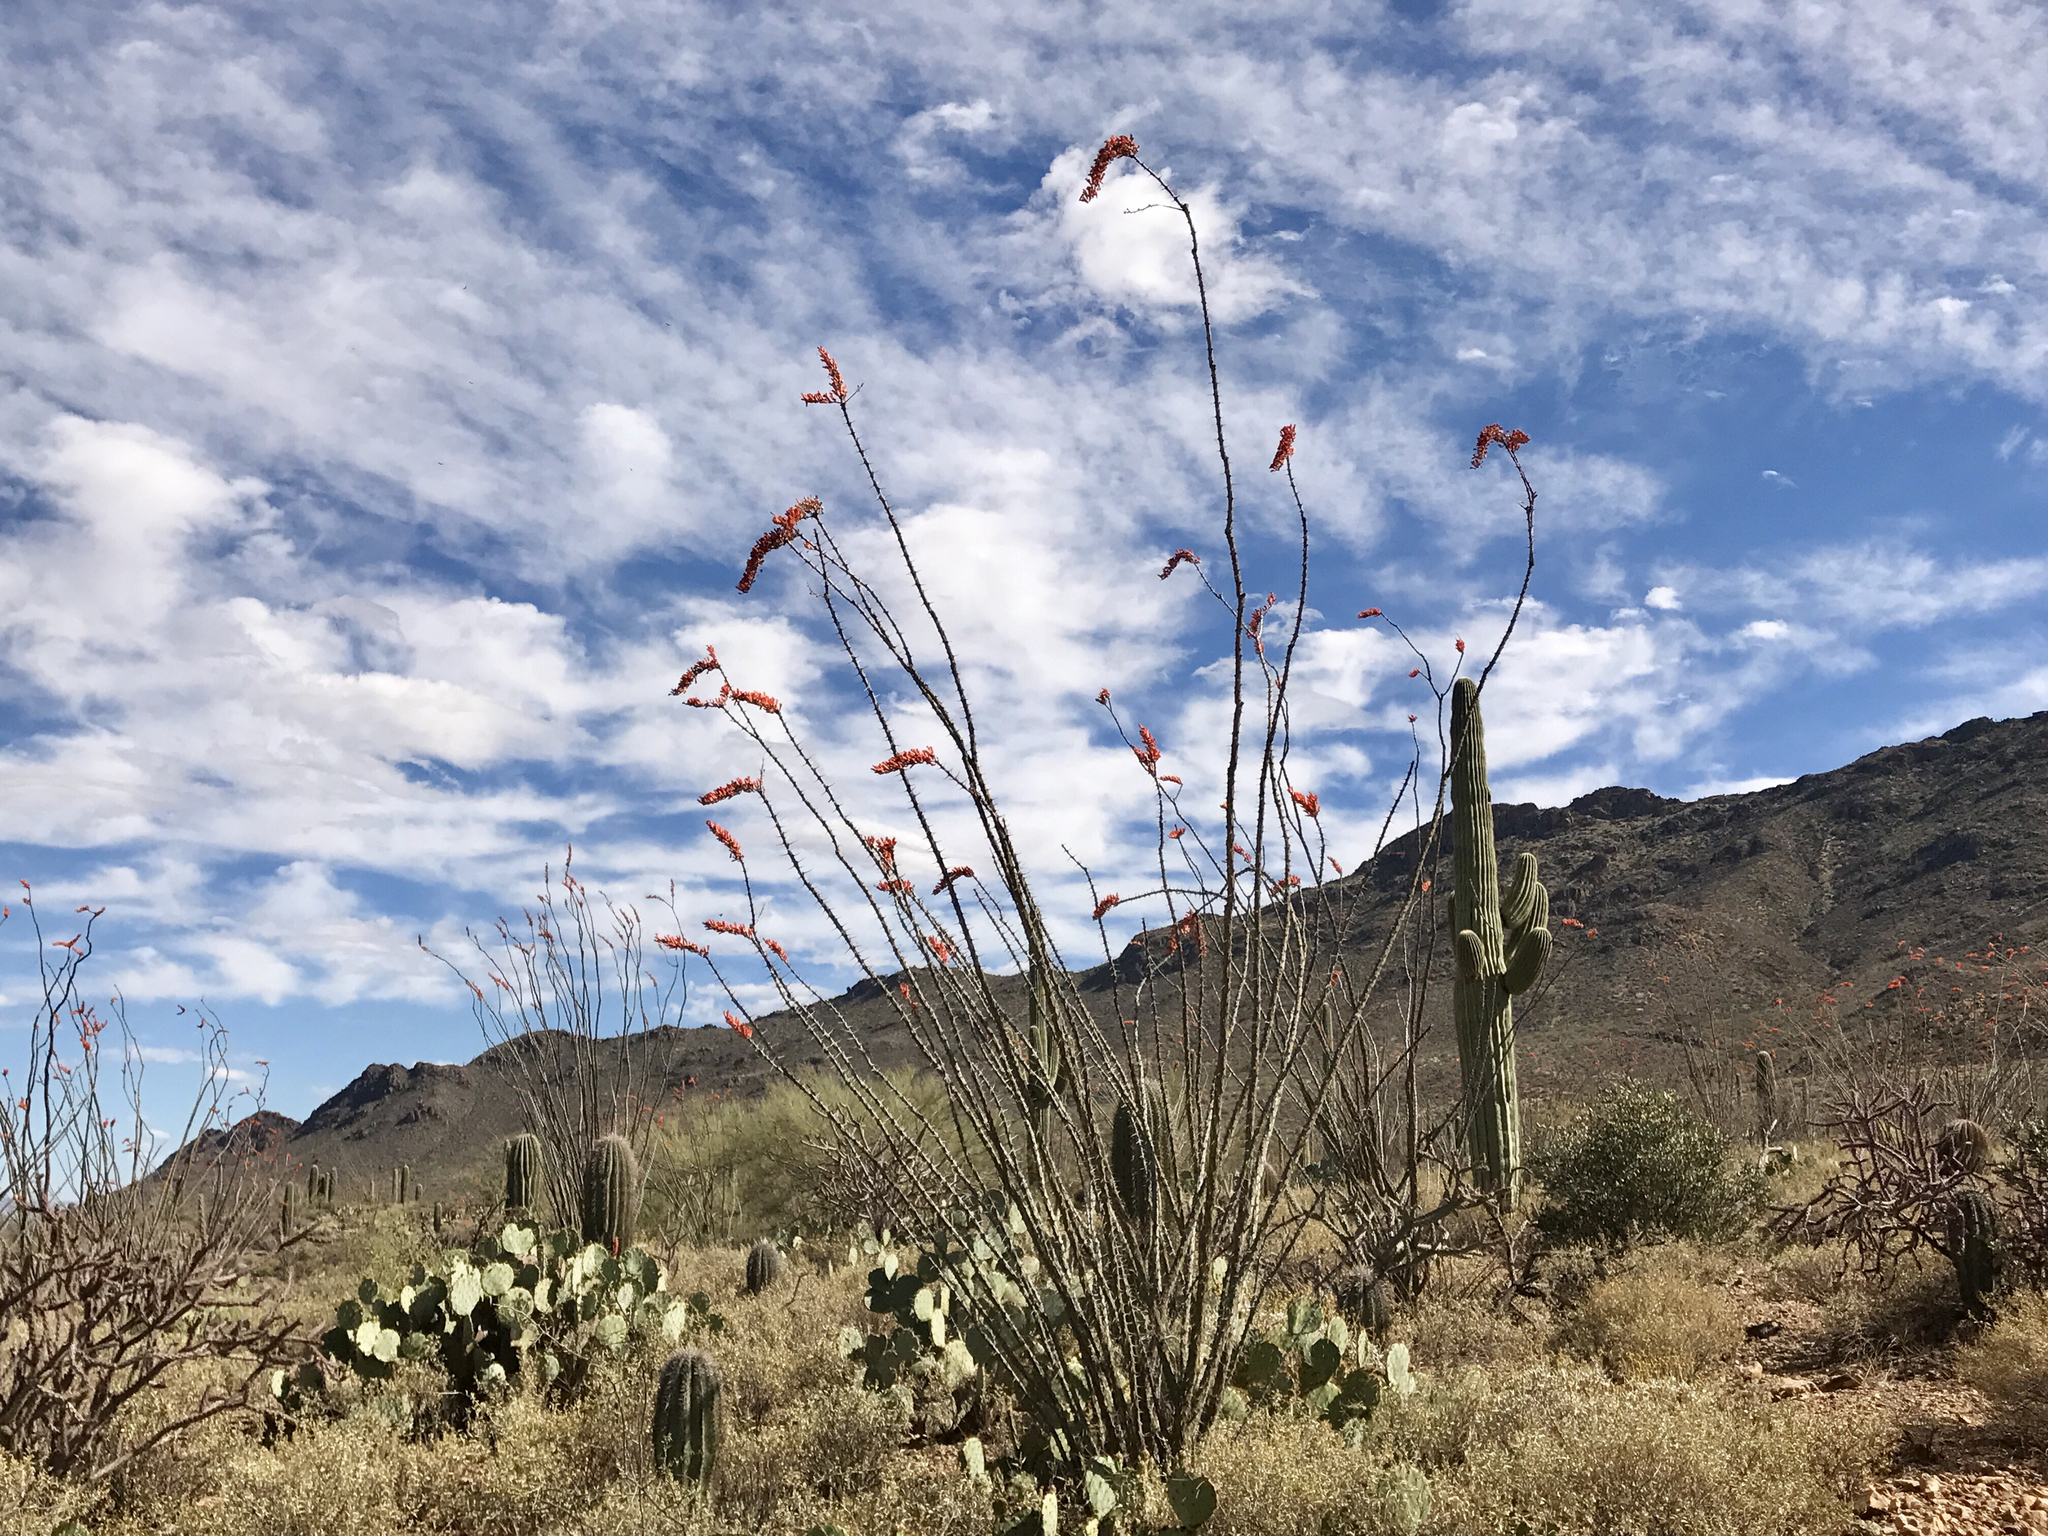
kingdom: Plantae
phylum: Tracheophyta
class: Magnoliopsida
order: Ericales
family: Fouquieriaceae
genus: Fouquieria
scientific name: Fouquieria splendens
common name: Vine-cactus
